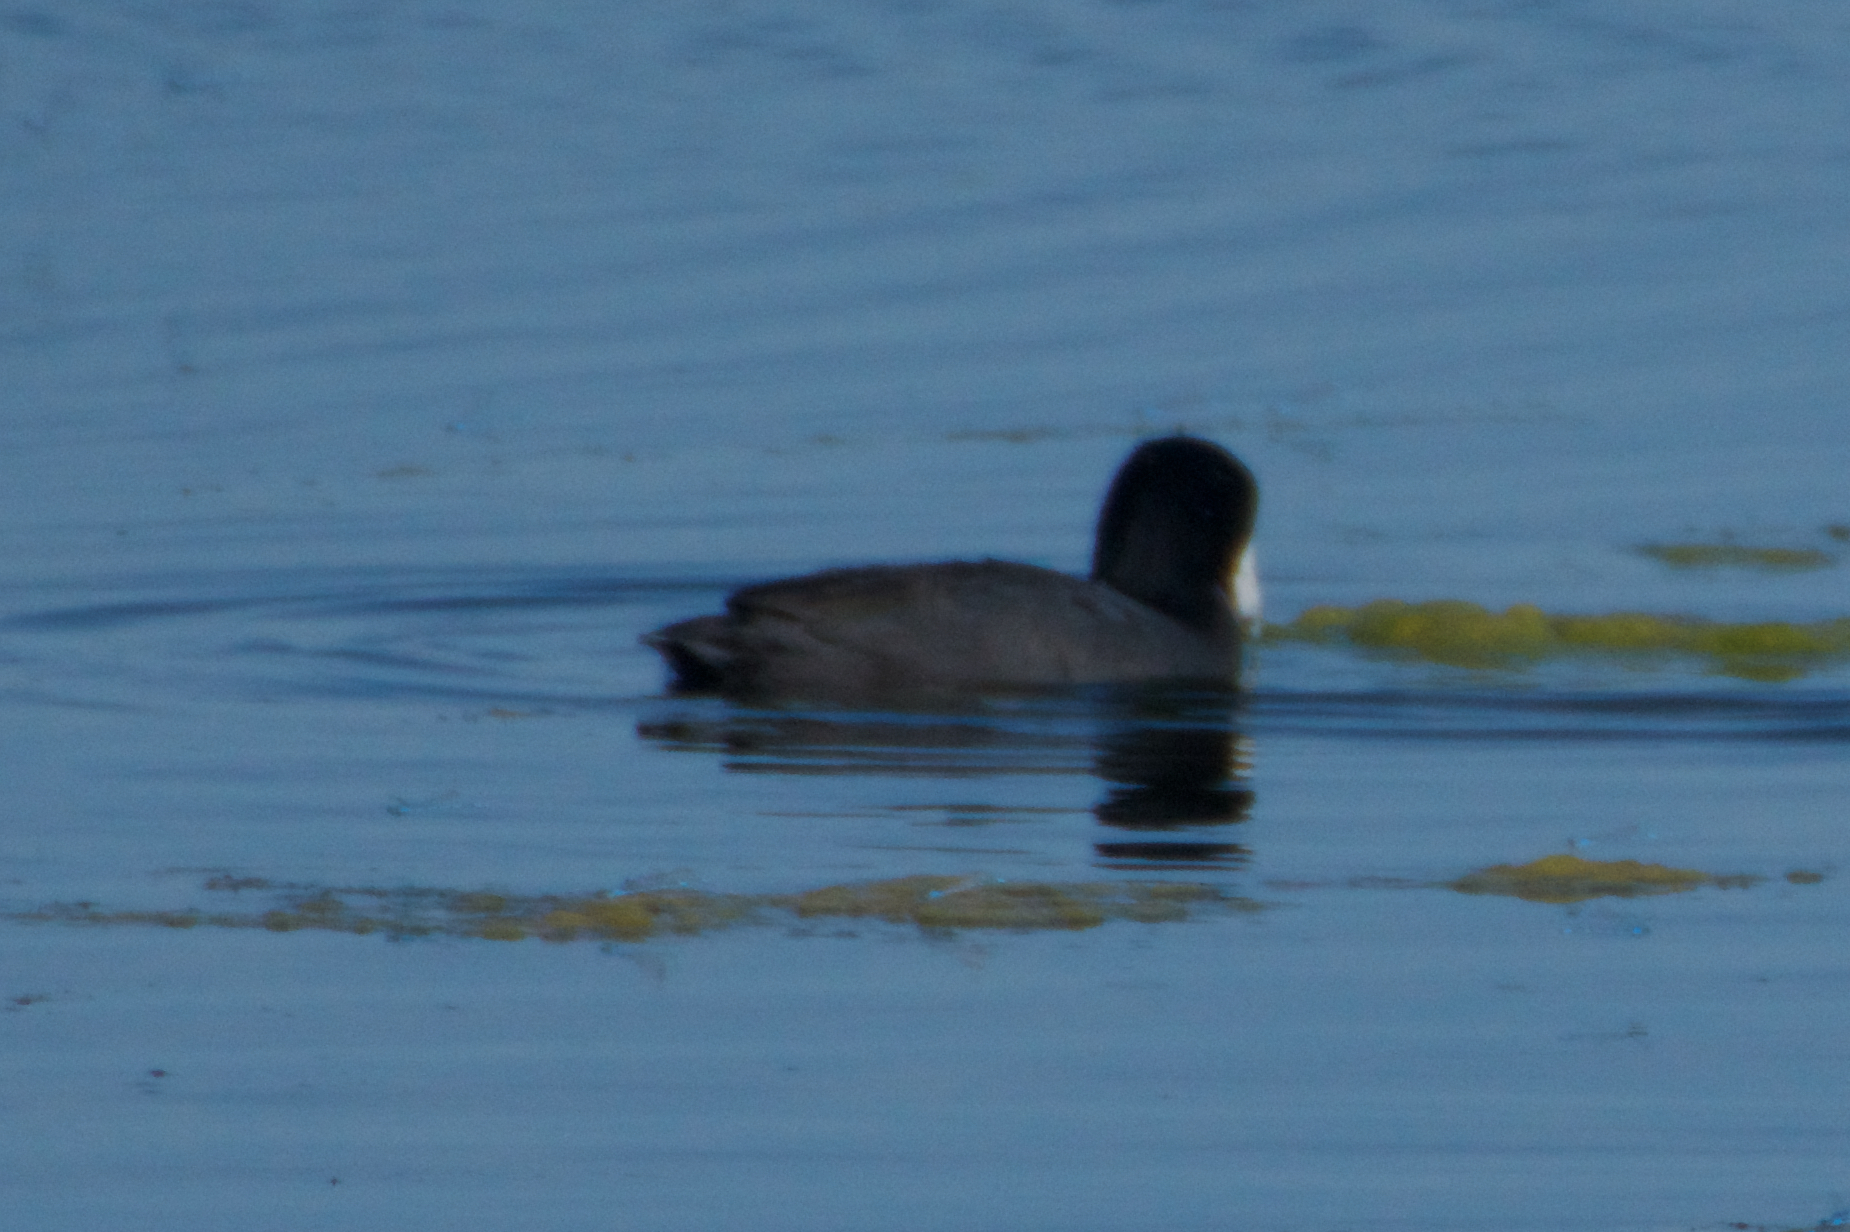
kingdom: Animalia
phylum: Chordata
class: Aves
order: Gruiformes
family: Rallidae
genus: Fulica
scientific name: Fulica americana
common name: American coot
